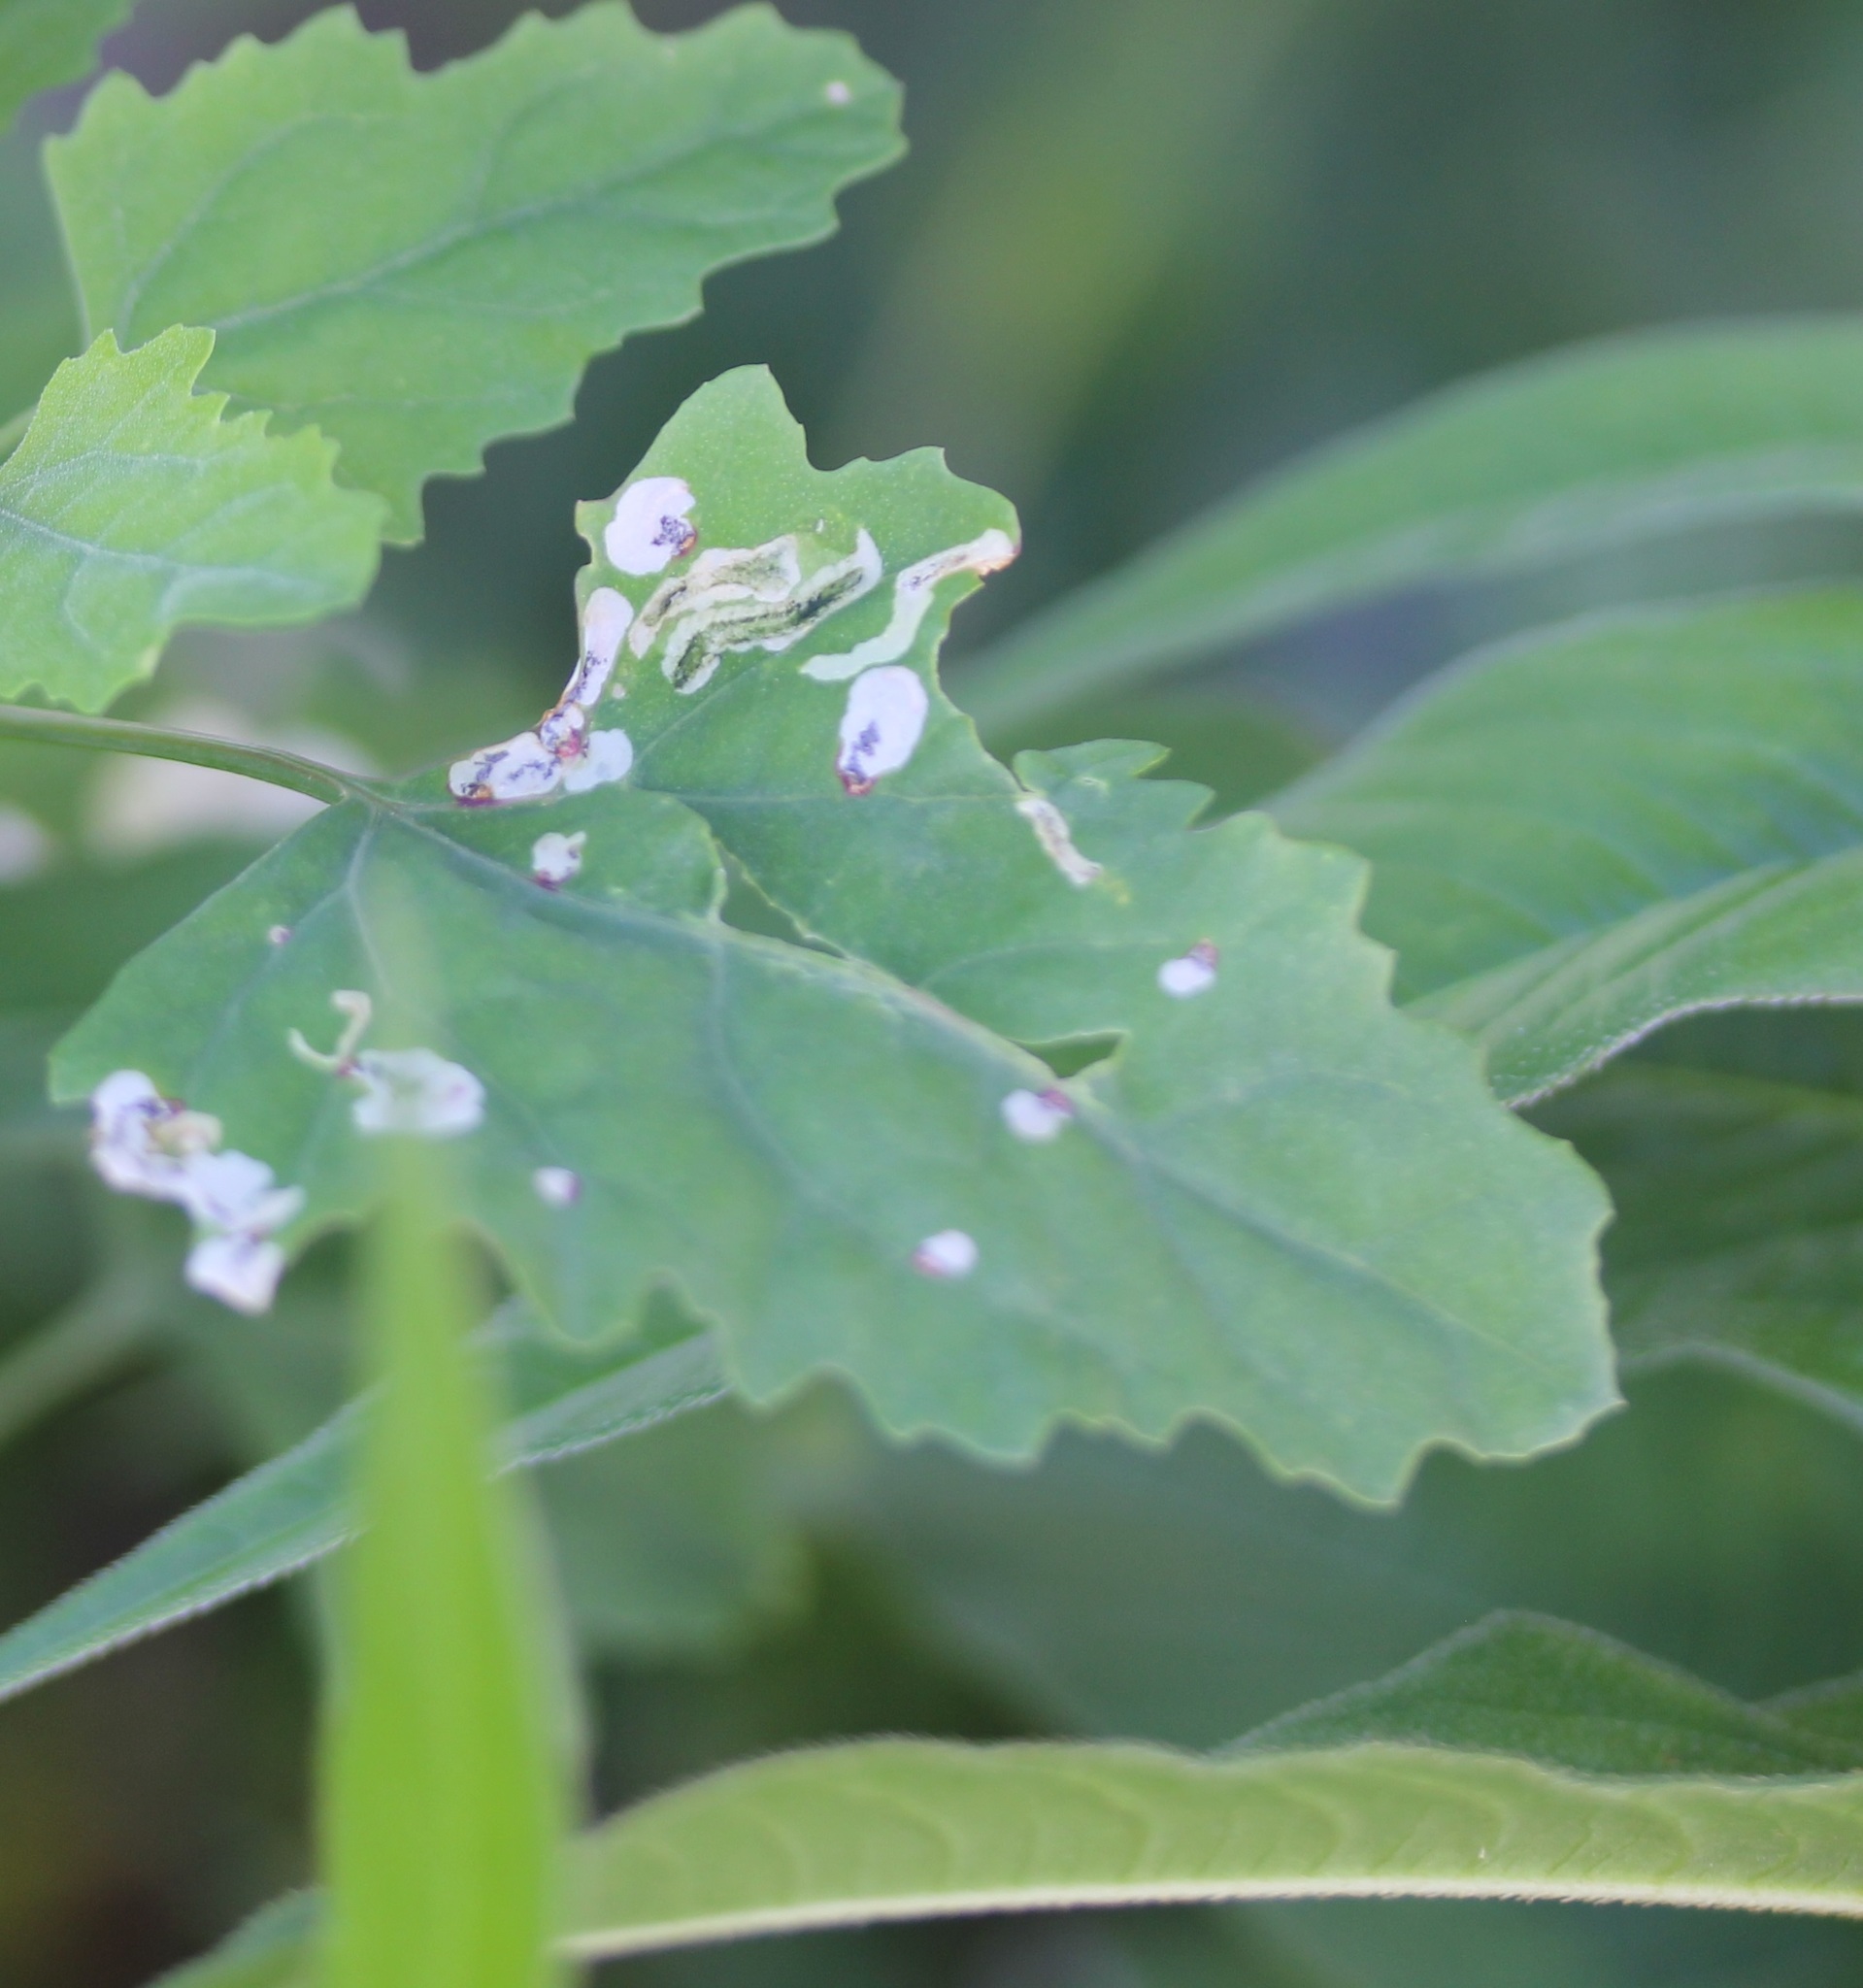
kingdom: Animalia
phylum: Arthropoda
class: Insecta
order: Lepidoptera
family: Gelechiidae
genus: Chrysoesthia
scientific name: Chrysoesthia sexguttella
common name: Moth
